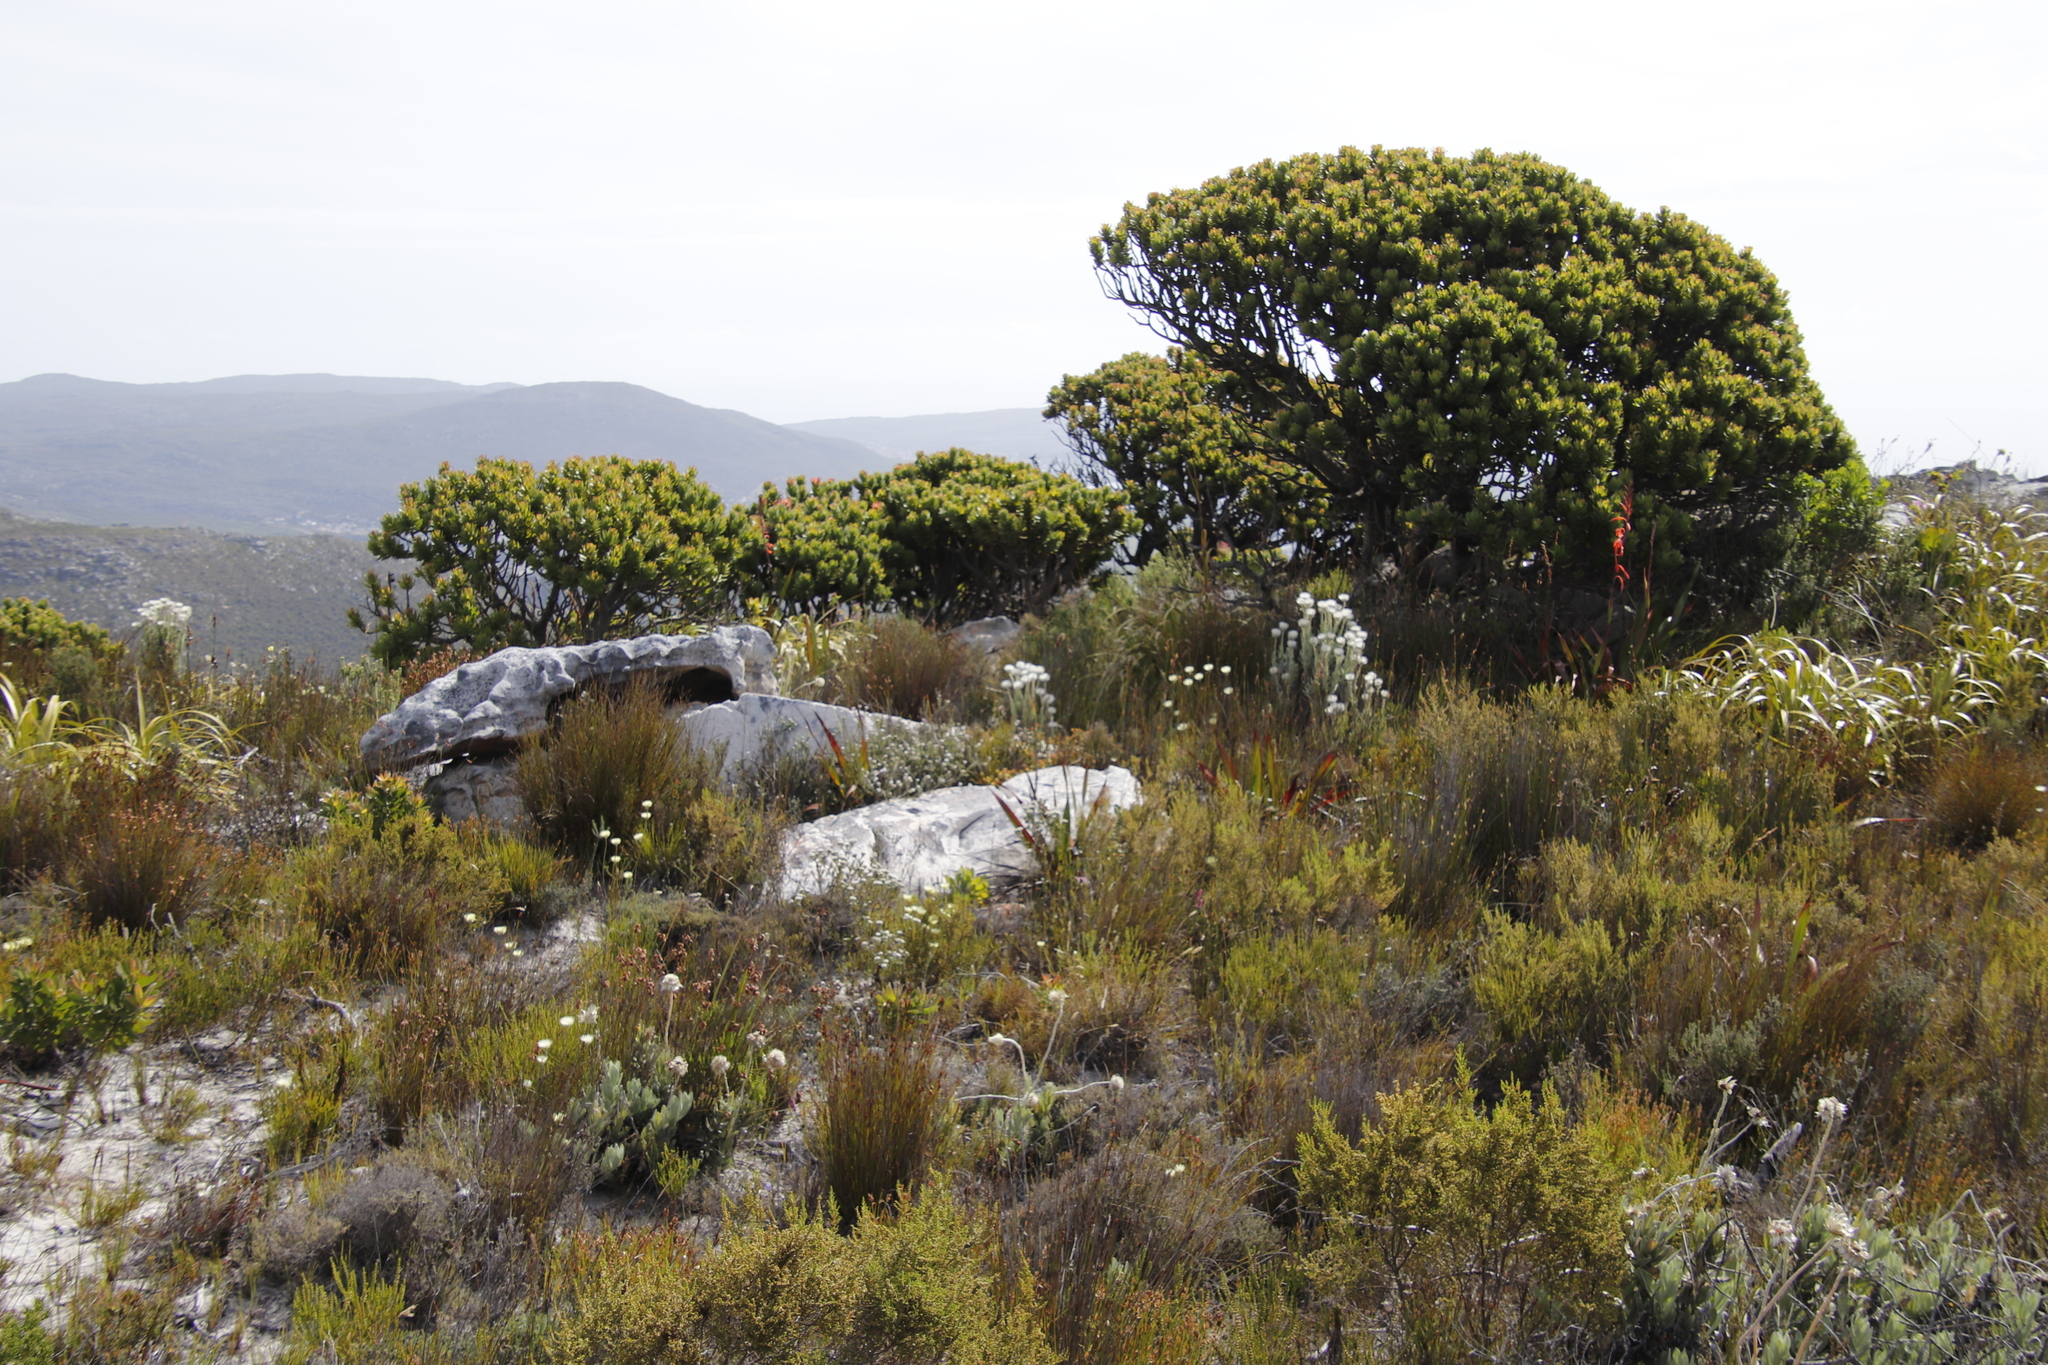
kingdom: Plantae
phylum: Tracheophyta
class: Magnoliopsida
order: Asterales
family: Asteraceae
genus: Edmondia
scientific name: Edmondia sesamoides
